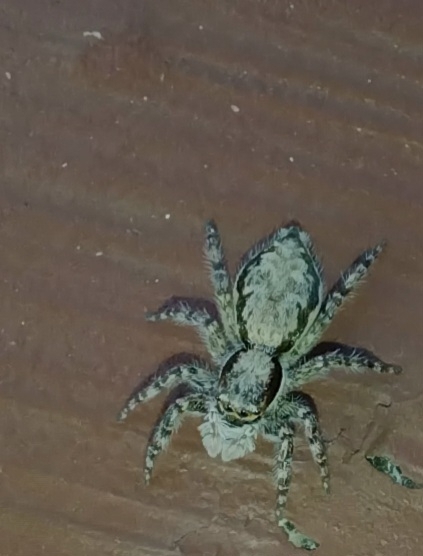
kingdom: Animalia
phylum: Arthropoda
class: Arachnida
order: Araneae
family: Salticidae
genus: Menemerus
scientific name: Menemerus bivittatus
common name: Gray wall jumper
